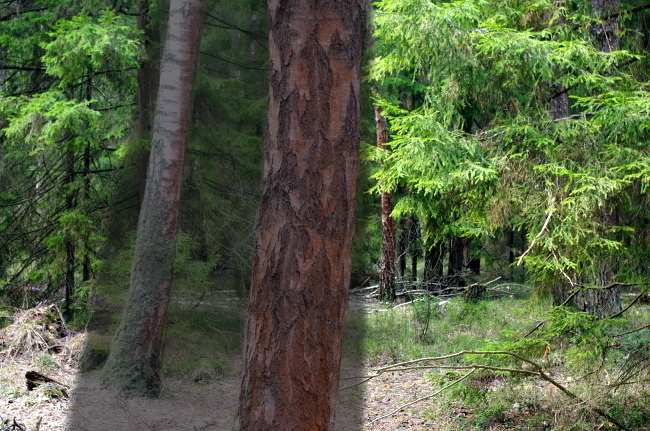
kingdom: Plantae
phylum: Tracheophyta
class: Pinopsida
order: Pinales
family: Pinaceae
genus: Picea
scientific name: Picea abies
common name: Norway spruce
